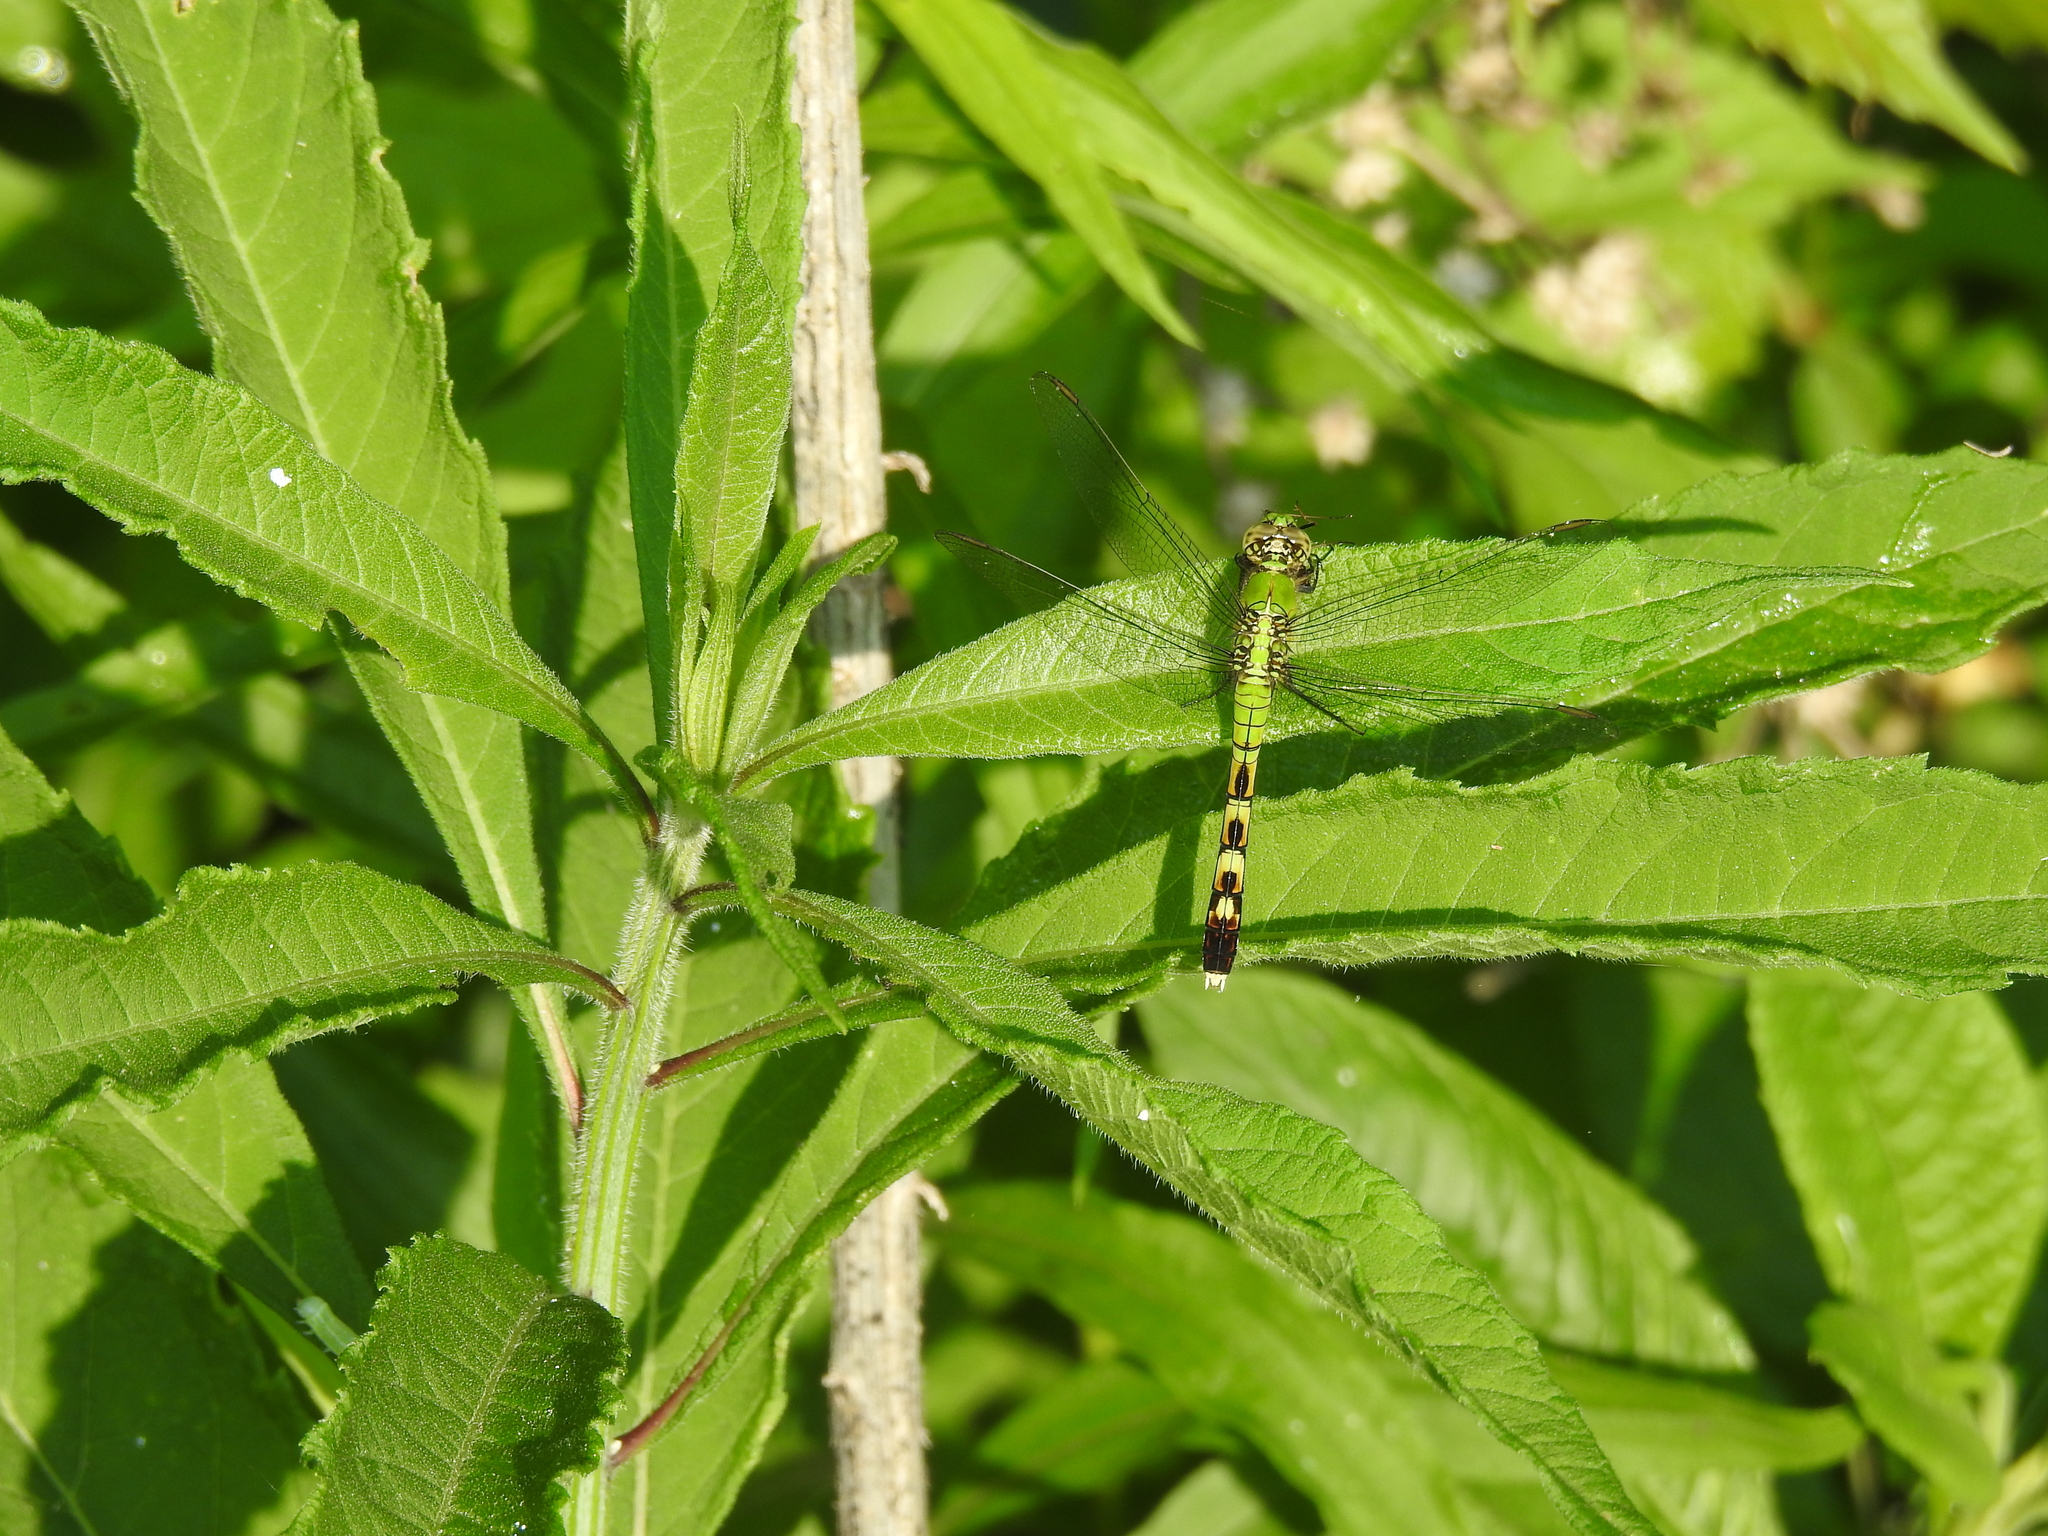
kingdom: Animalia
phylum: Arthropoda
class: Insecta
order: Odonata
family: Libellulidae
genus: Erythemis
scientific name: Erythemis simplicicollis
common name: Eastern pondhawk
